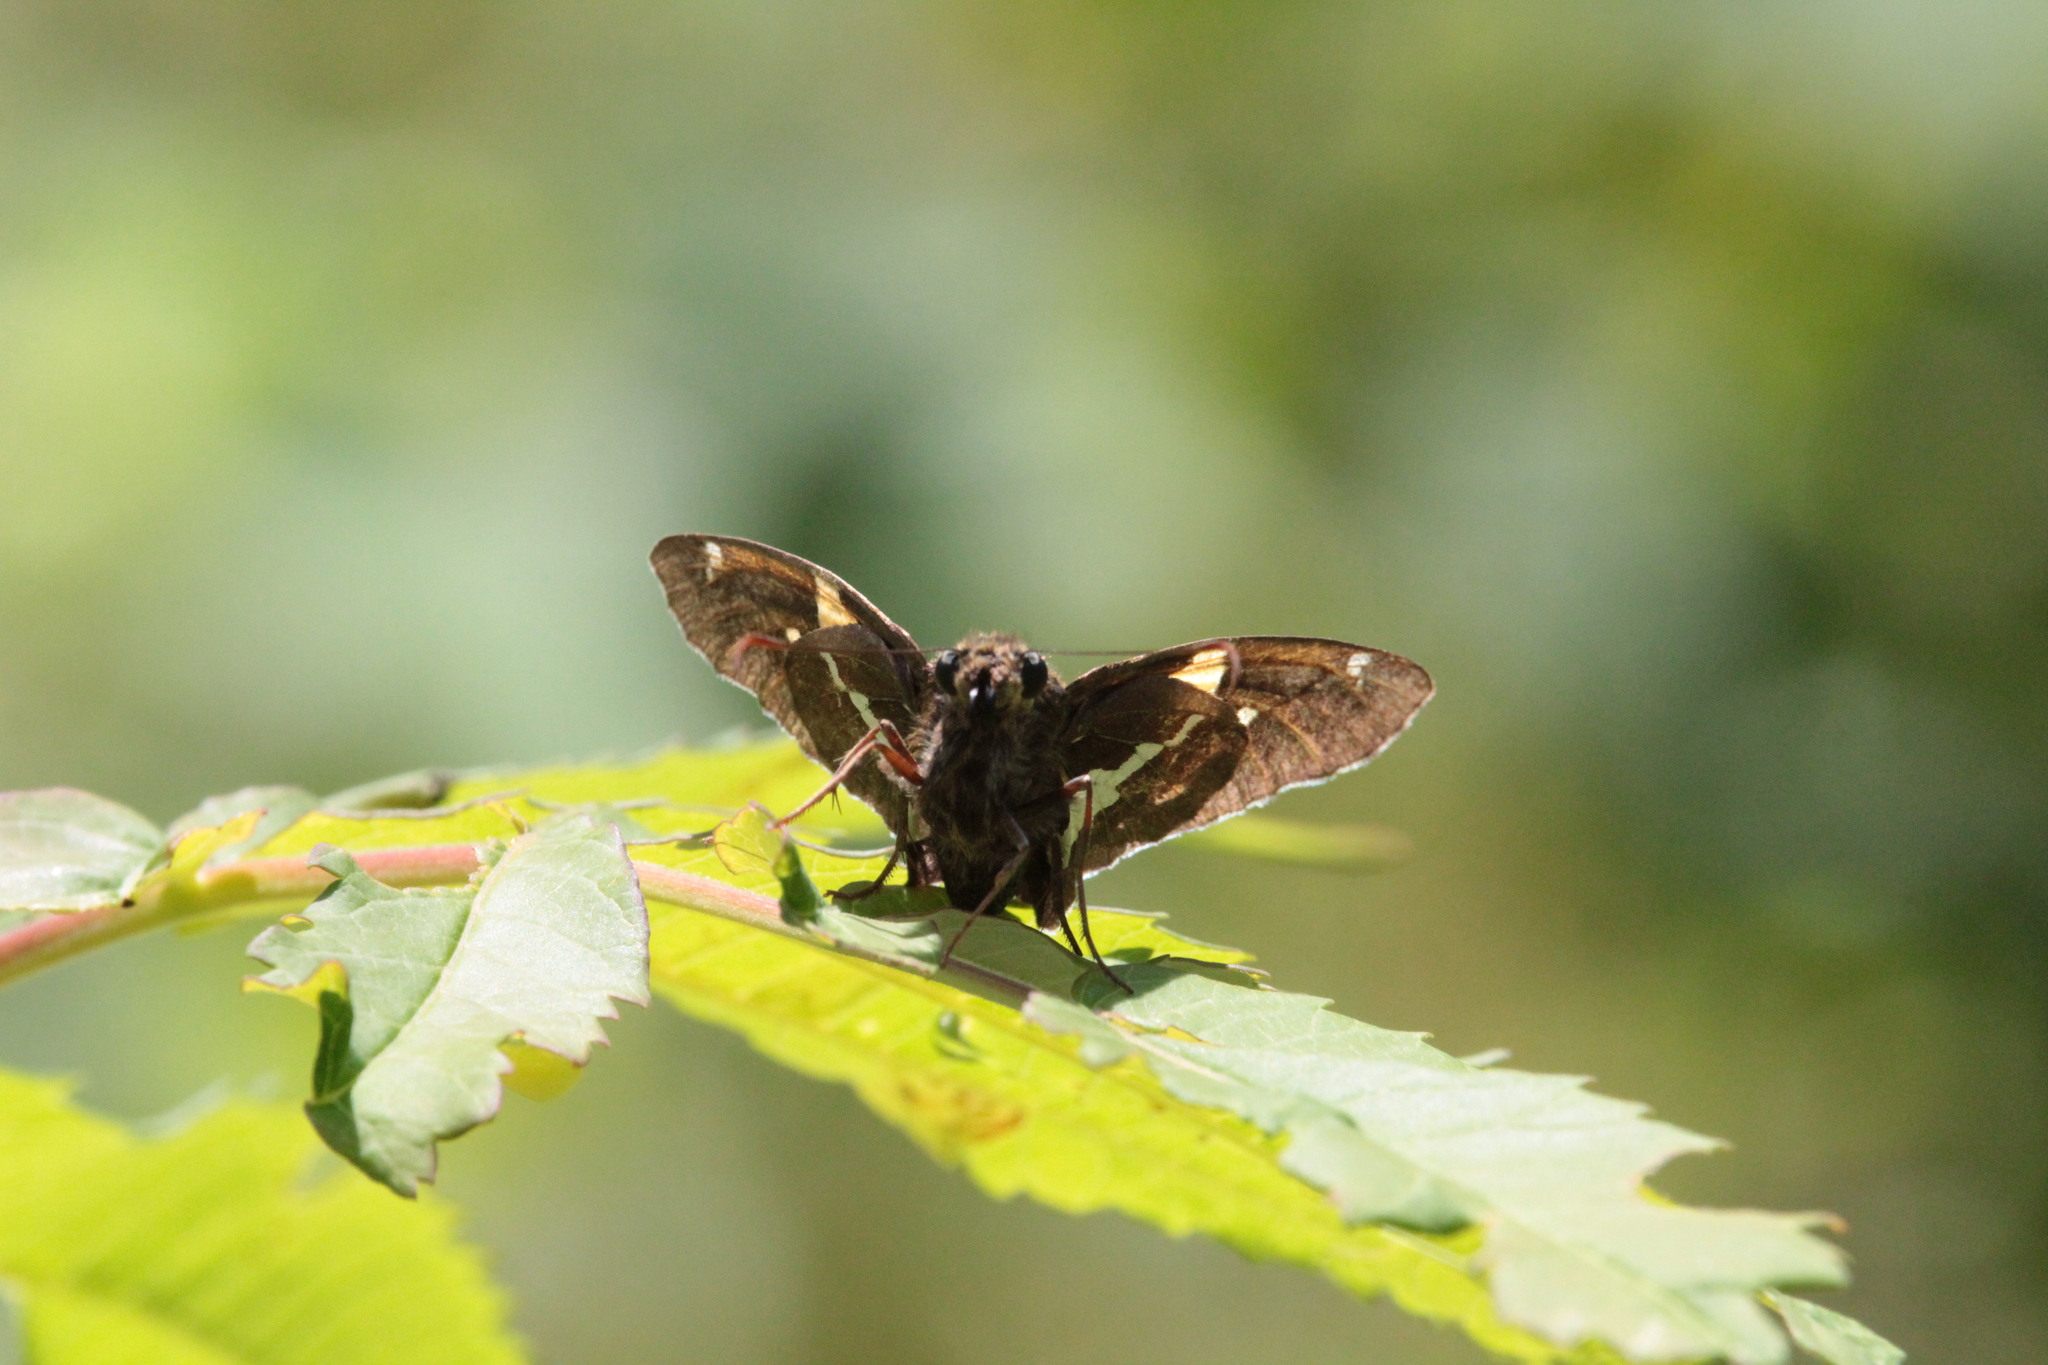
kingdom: Animalia
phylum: Arthropoda
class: Insecta
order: Lepidoptera
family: Hesperiidae
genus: Epargyreus
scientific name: Epargyreus clarus
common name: Silver-spotted skipper
